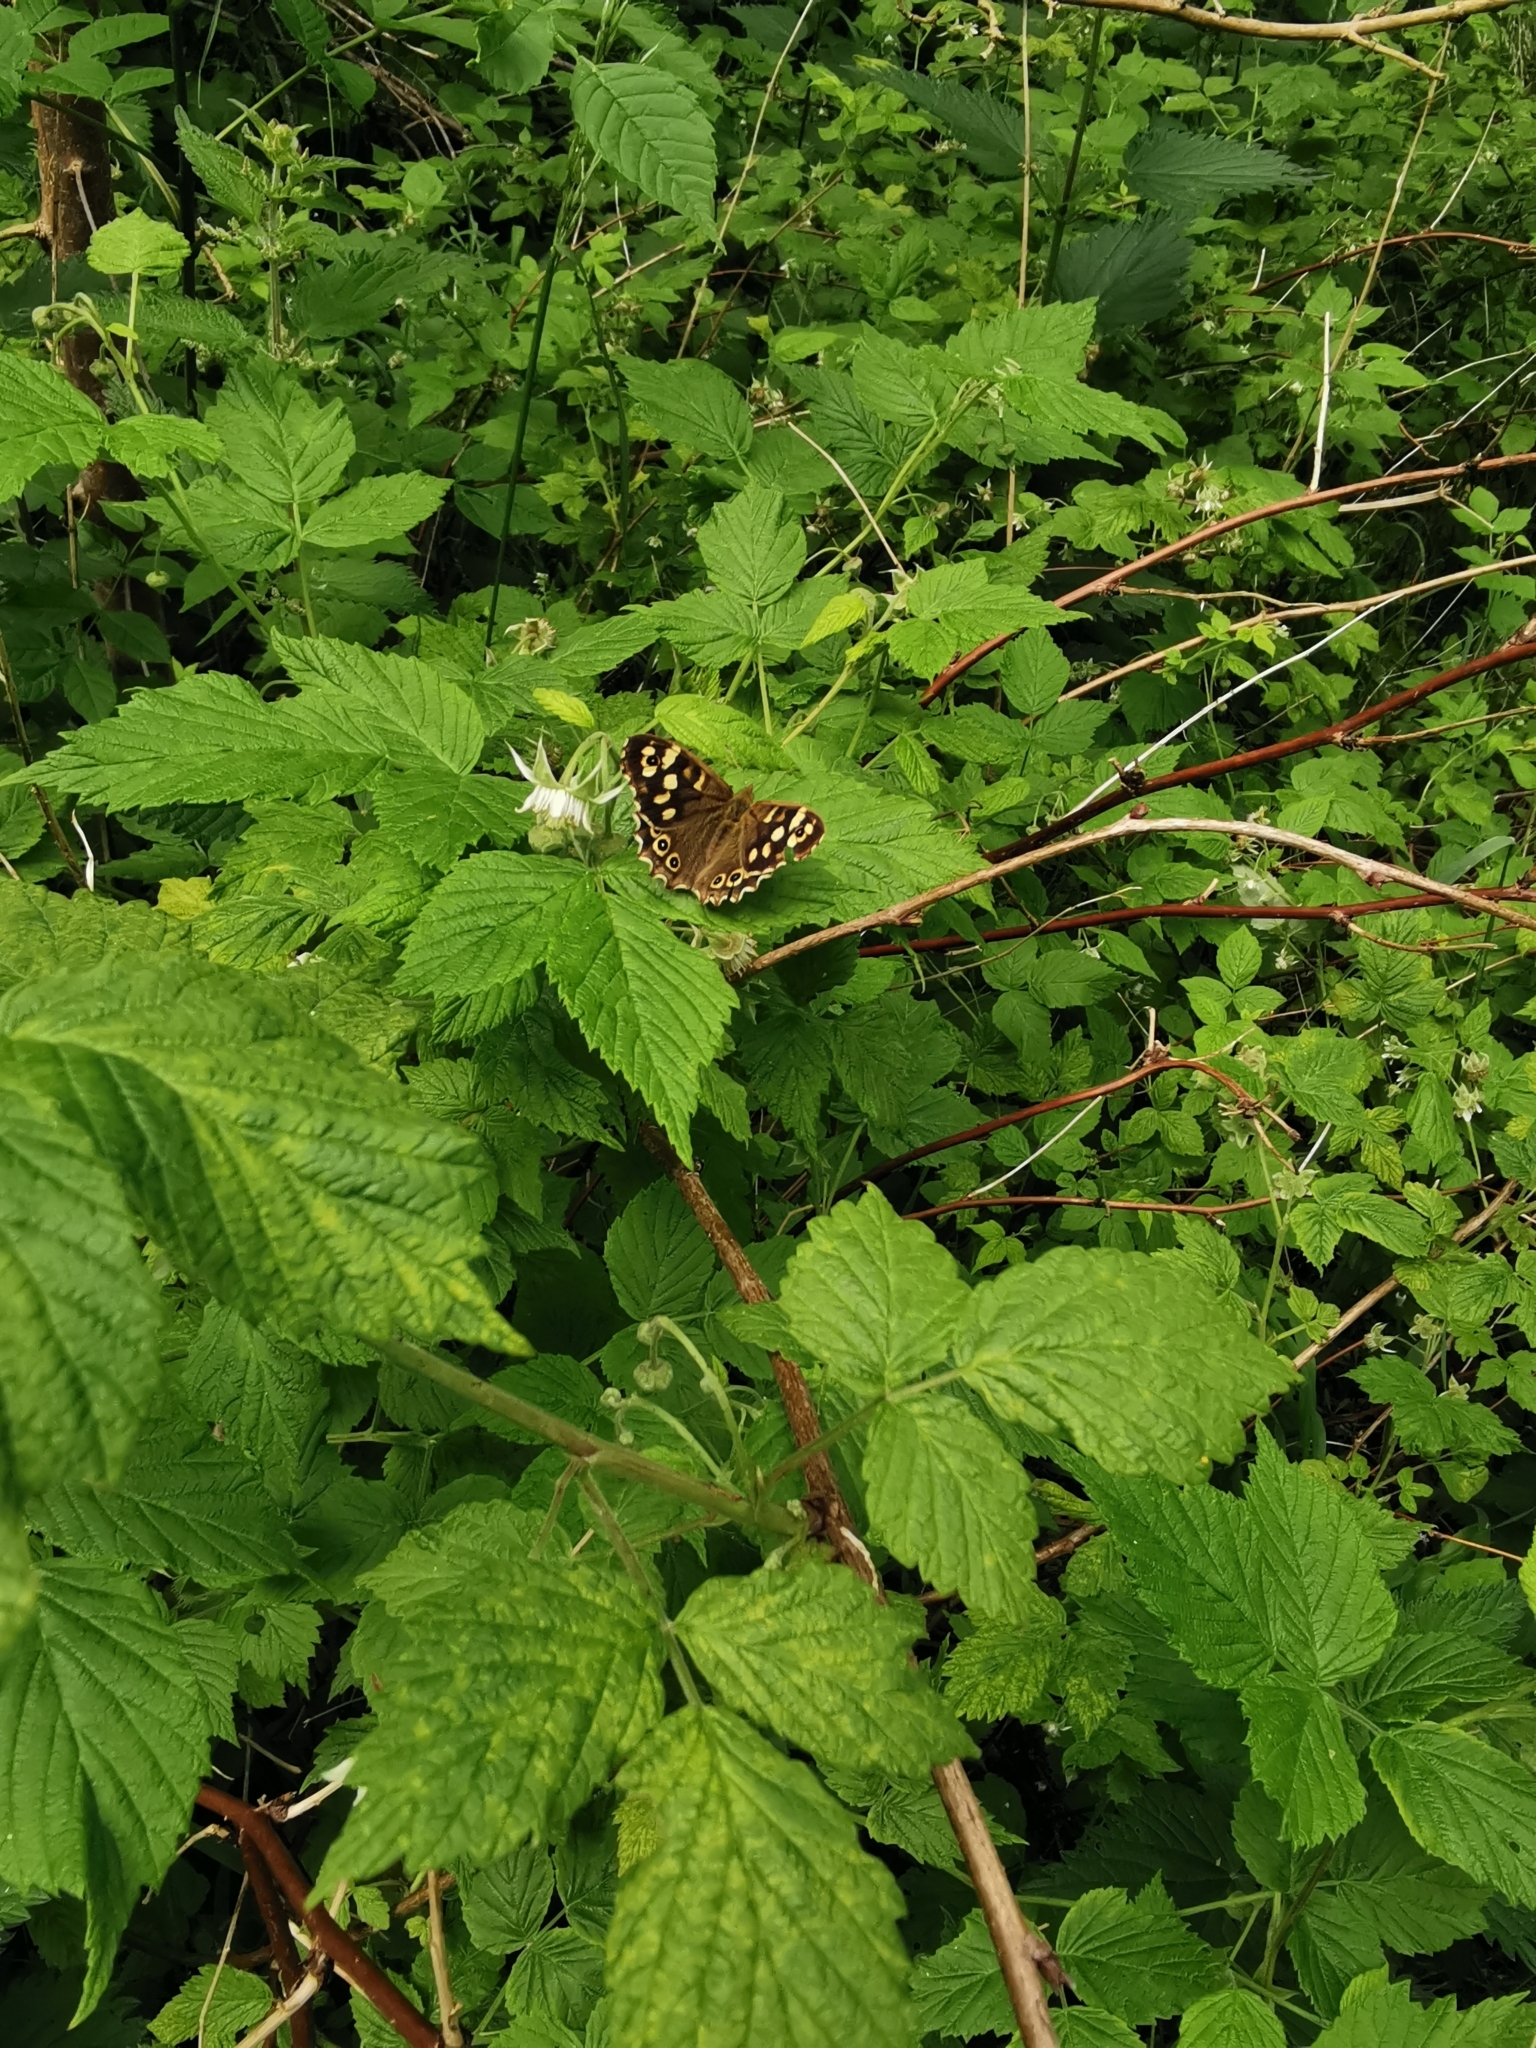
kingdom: Animalia
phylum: Arthropoda
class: Insecta
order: Lepidoptera
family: Nymphalidae
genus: Pararge
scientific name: Pararge aegeria
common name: Speckled wood
